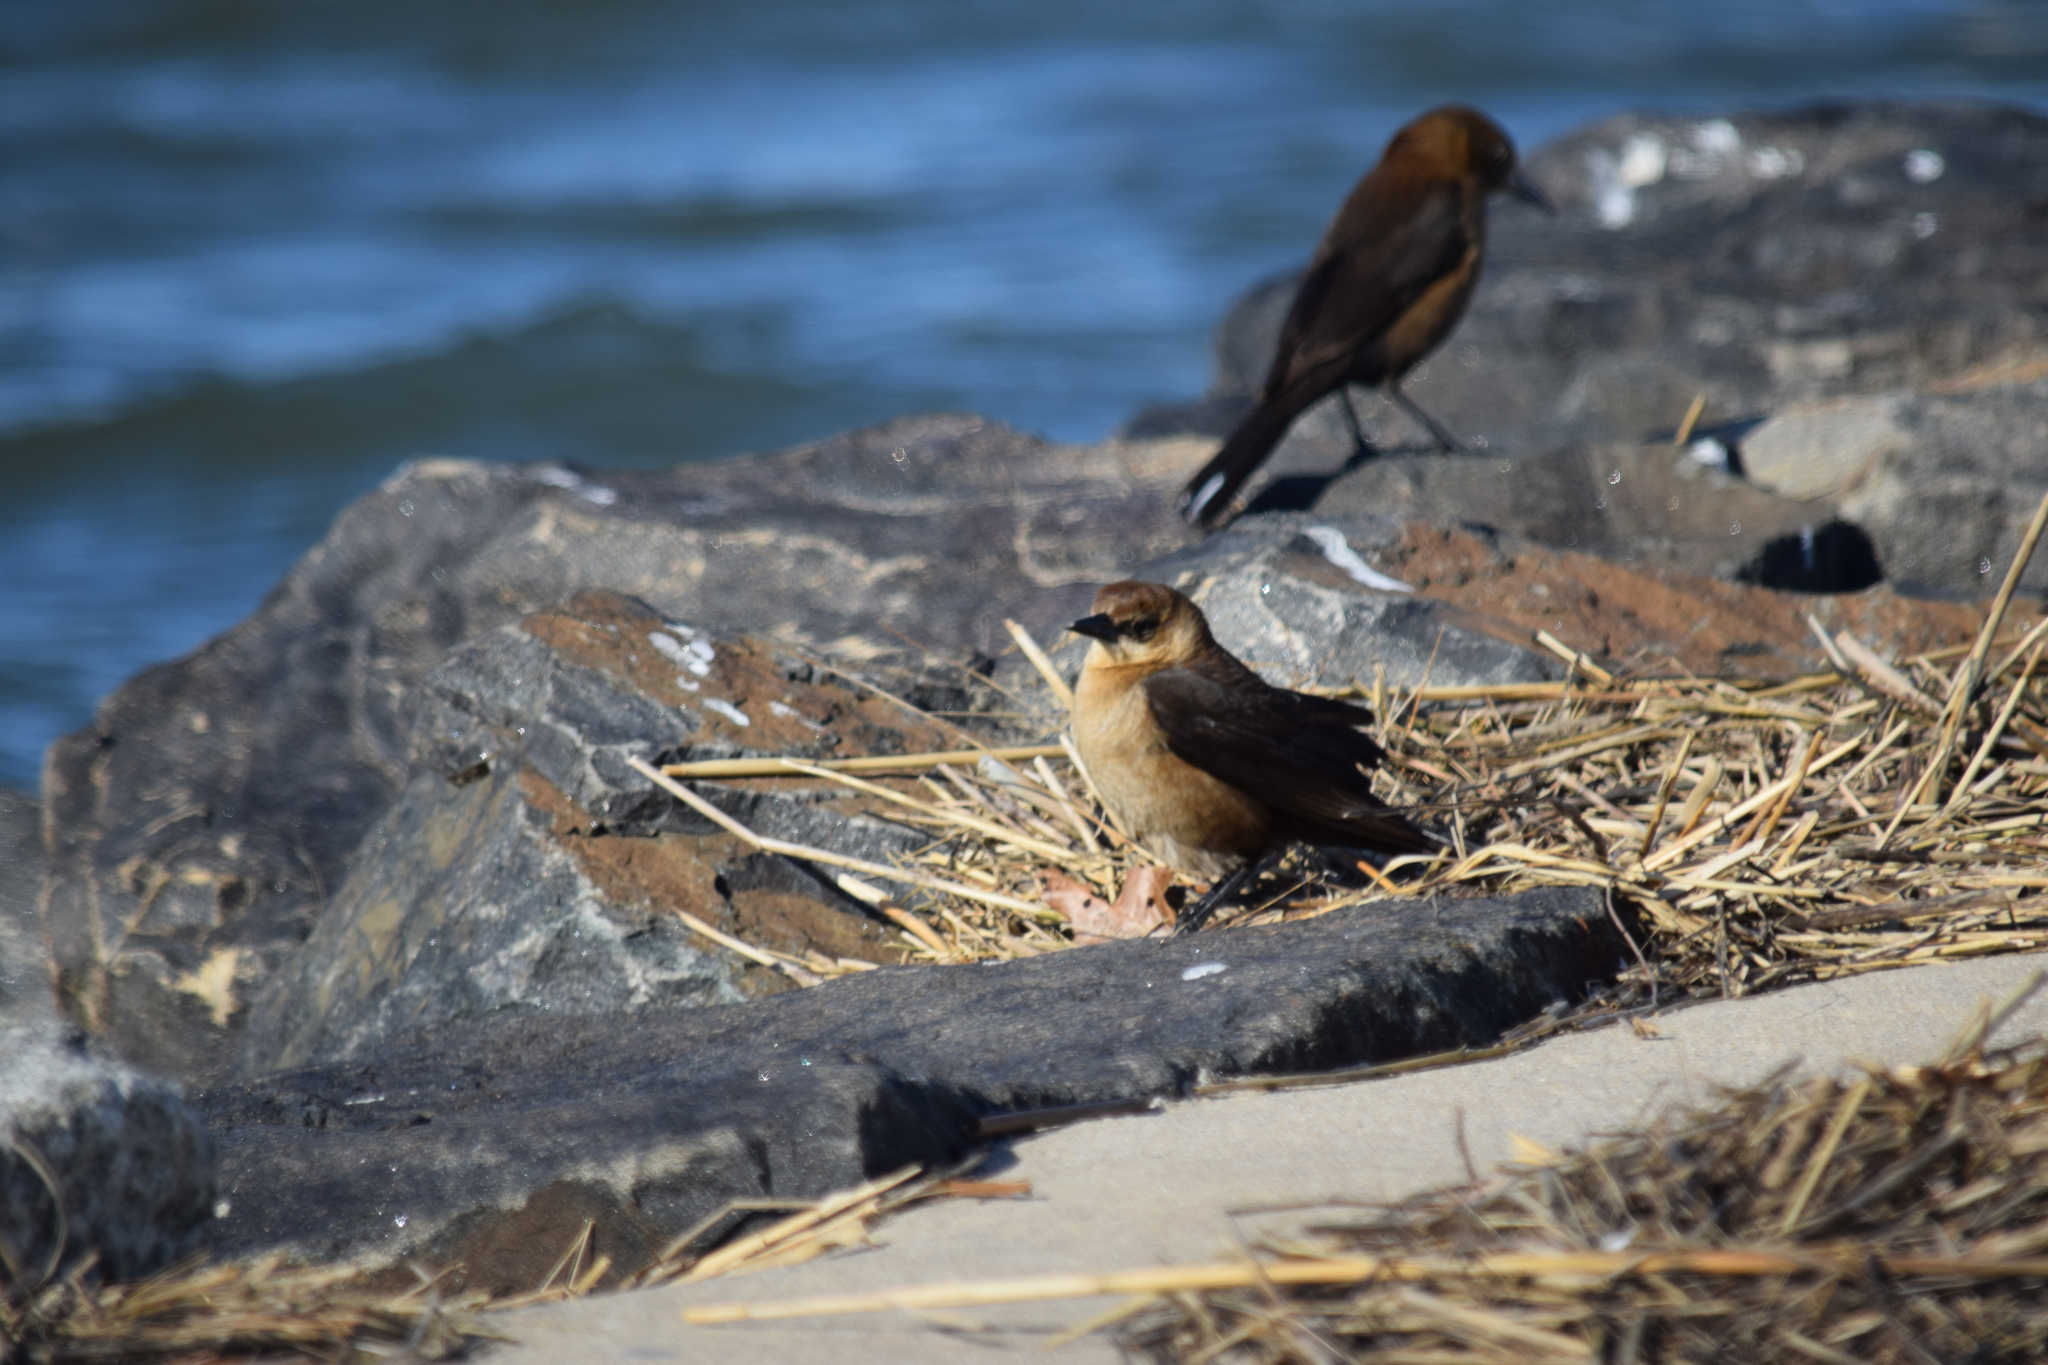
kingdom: Animalia
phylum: Chordata
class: Aves
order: Passeriformes
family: Icteridae
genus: Quiscalus
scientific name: Quiscalus major
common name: Boat-tailed grackle
